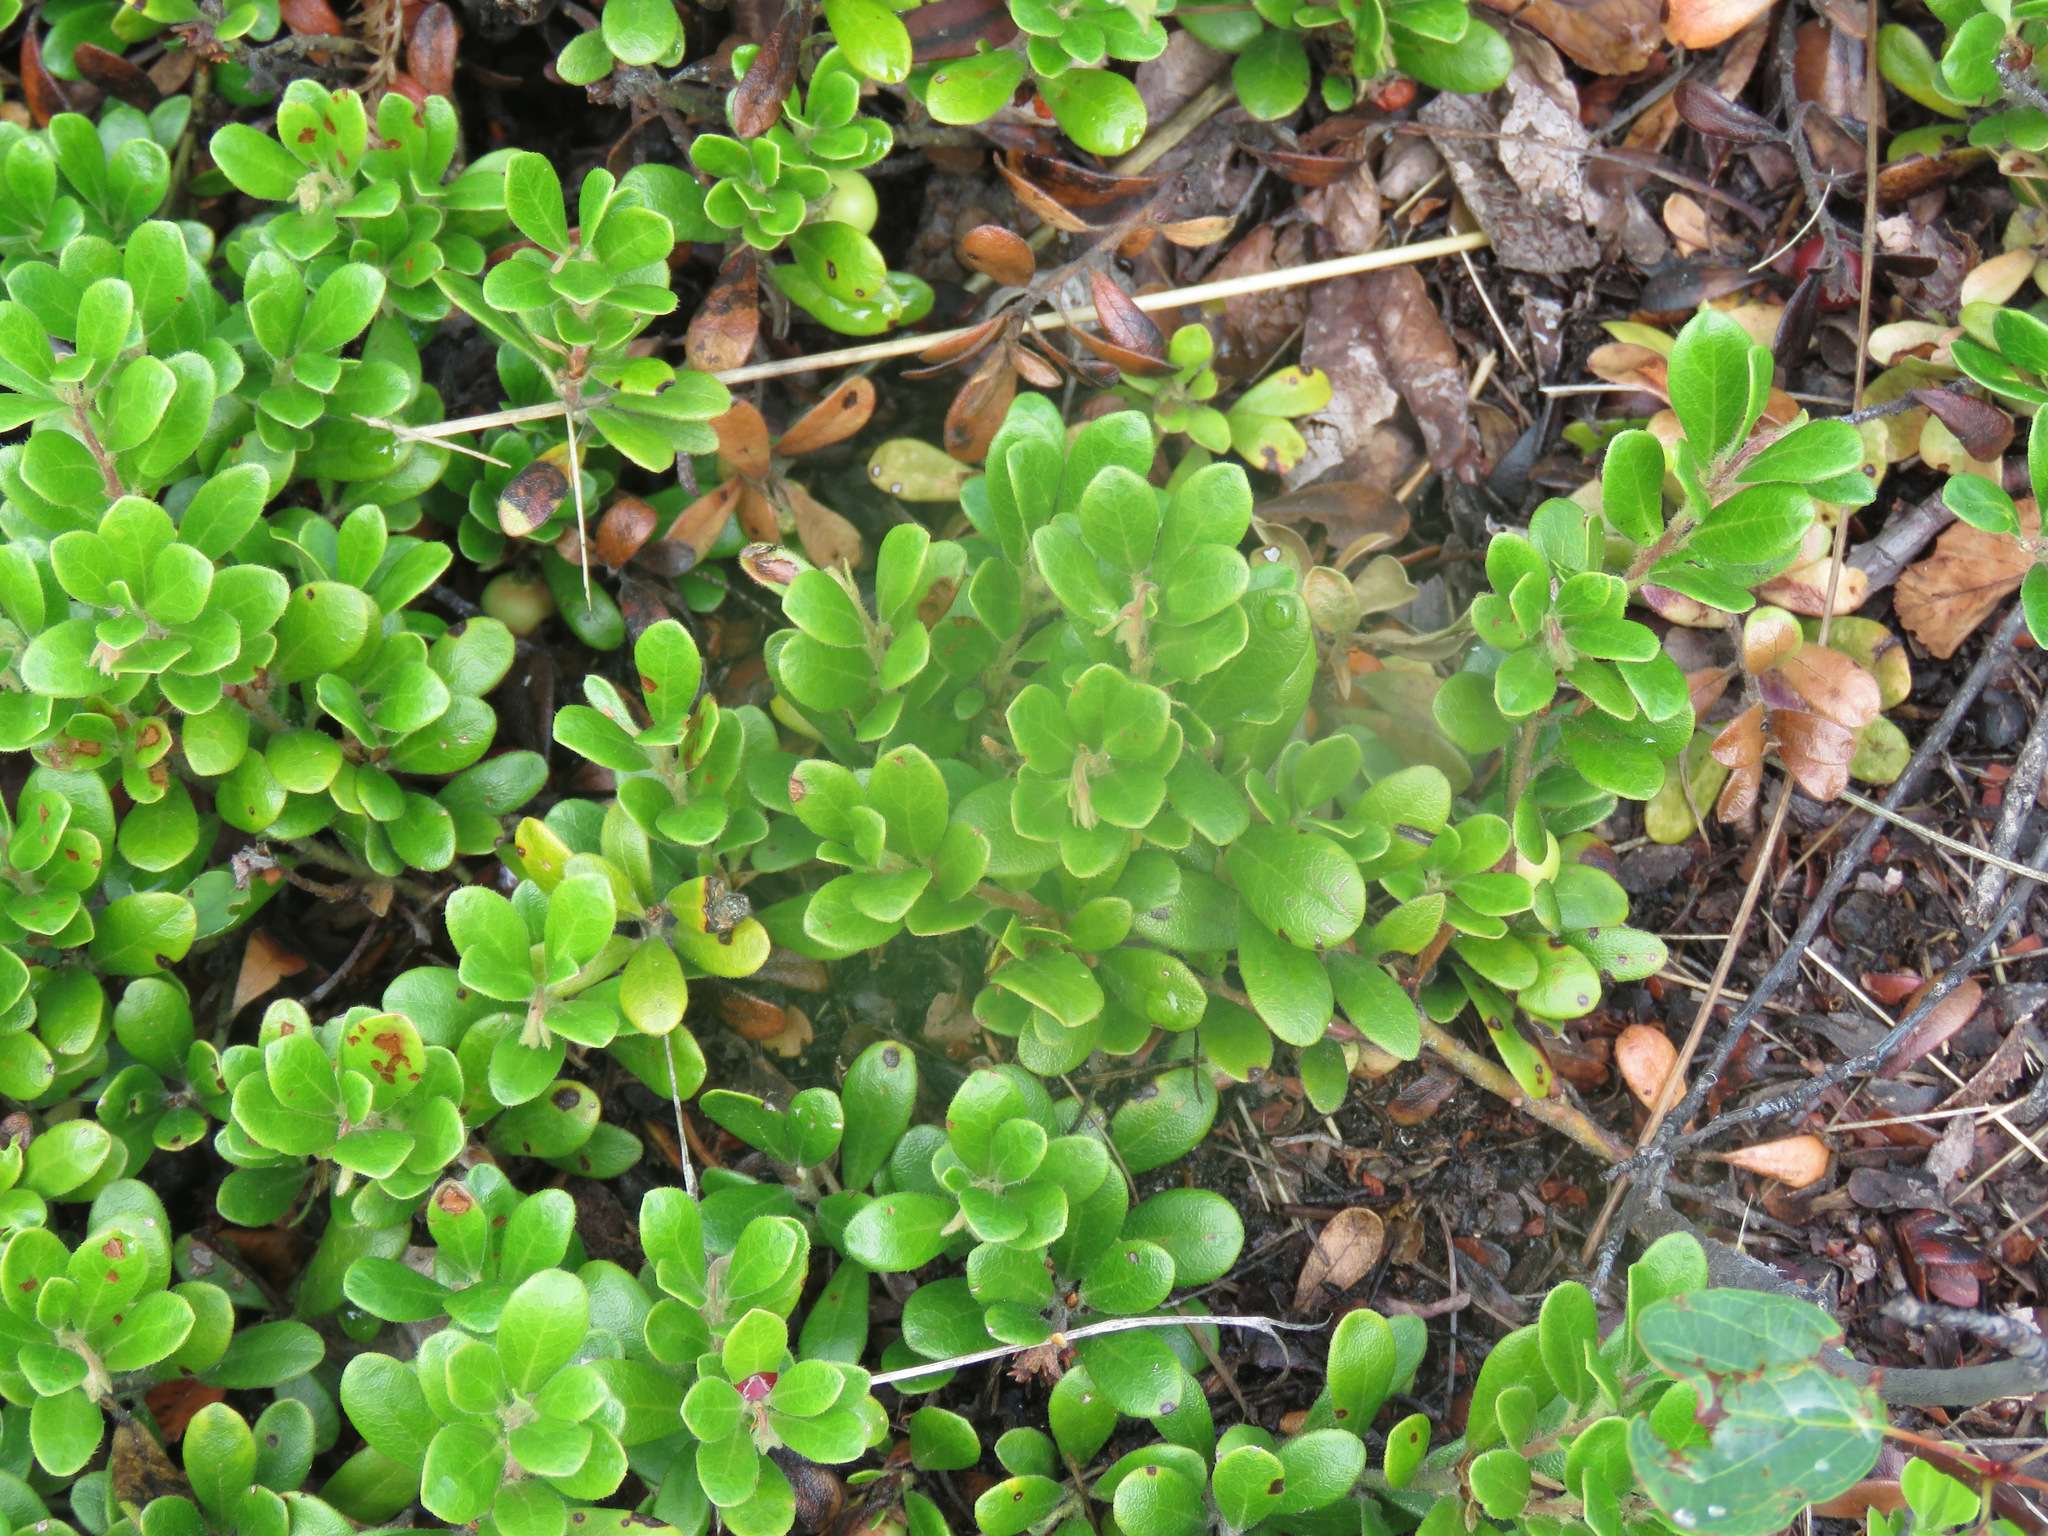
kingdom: Plantae
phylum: Tracheophyta
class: Magnoliopsida
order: Ericales
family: Ericaceae
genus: Arctostaphylos
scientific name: Arctostaphylos uva-ursi
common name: Bearberry
